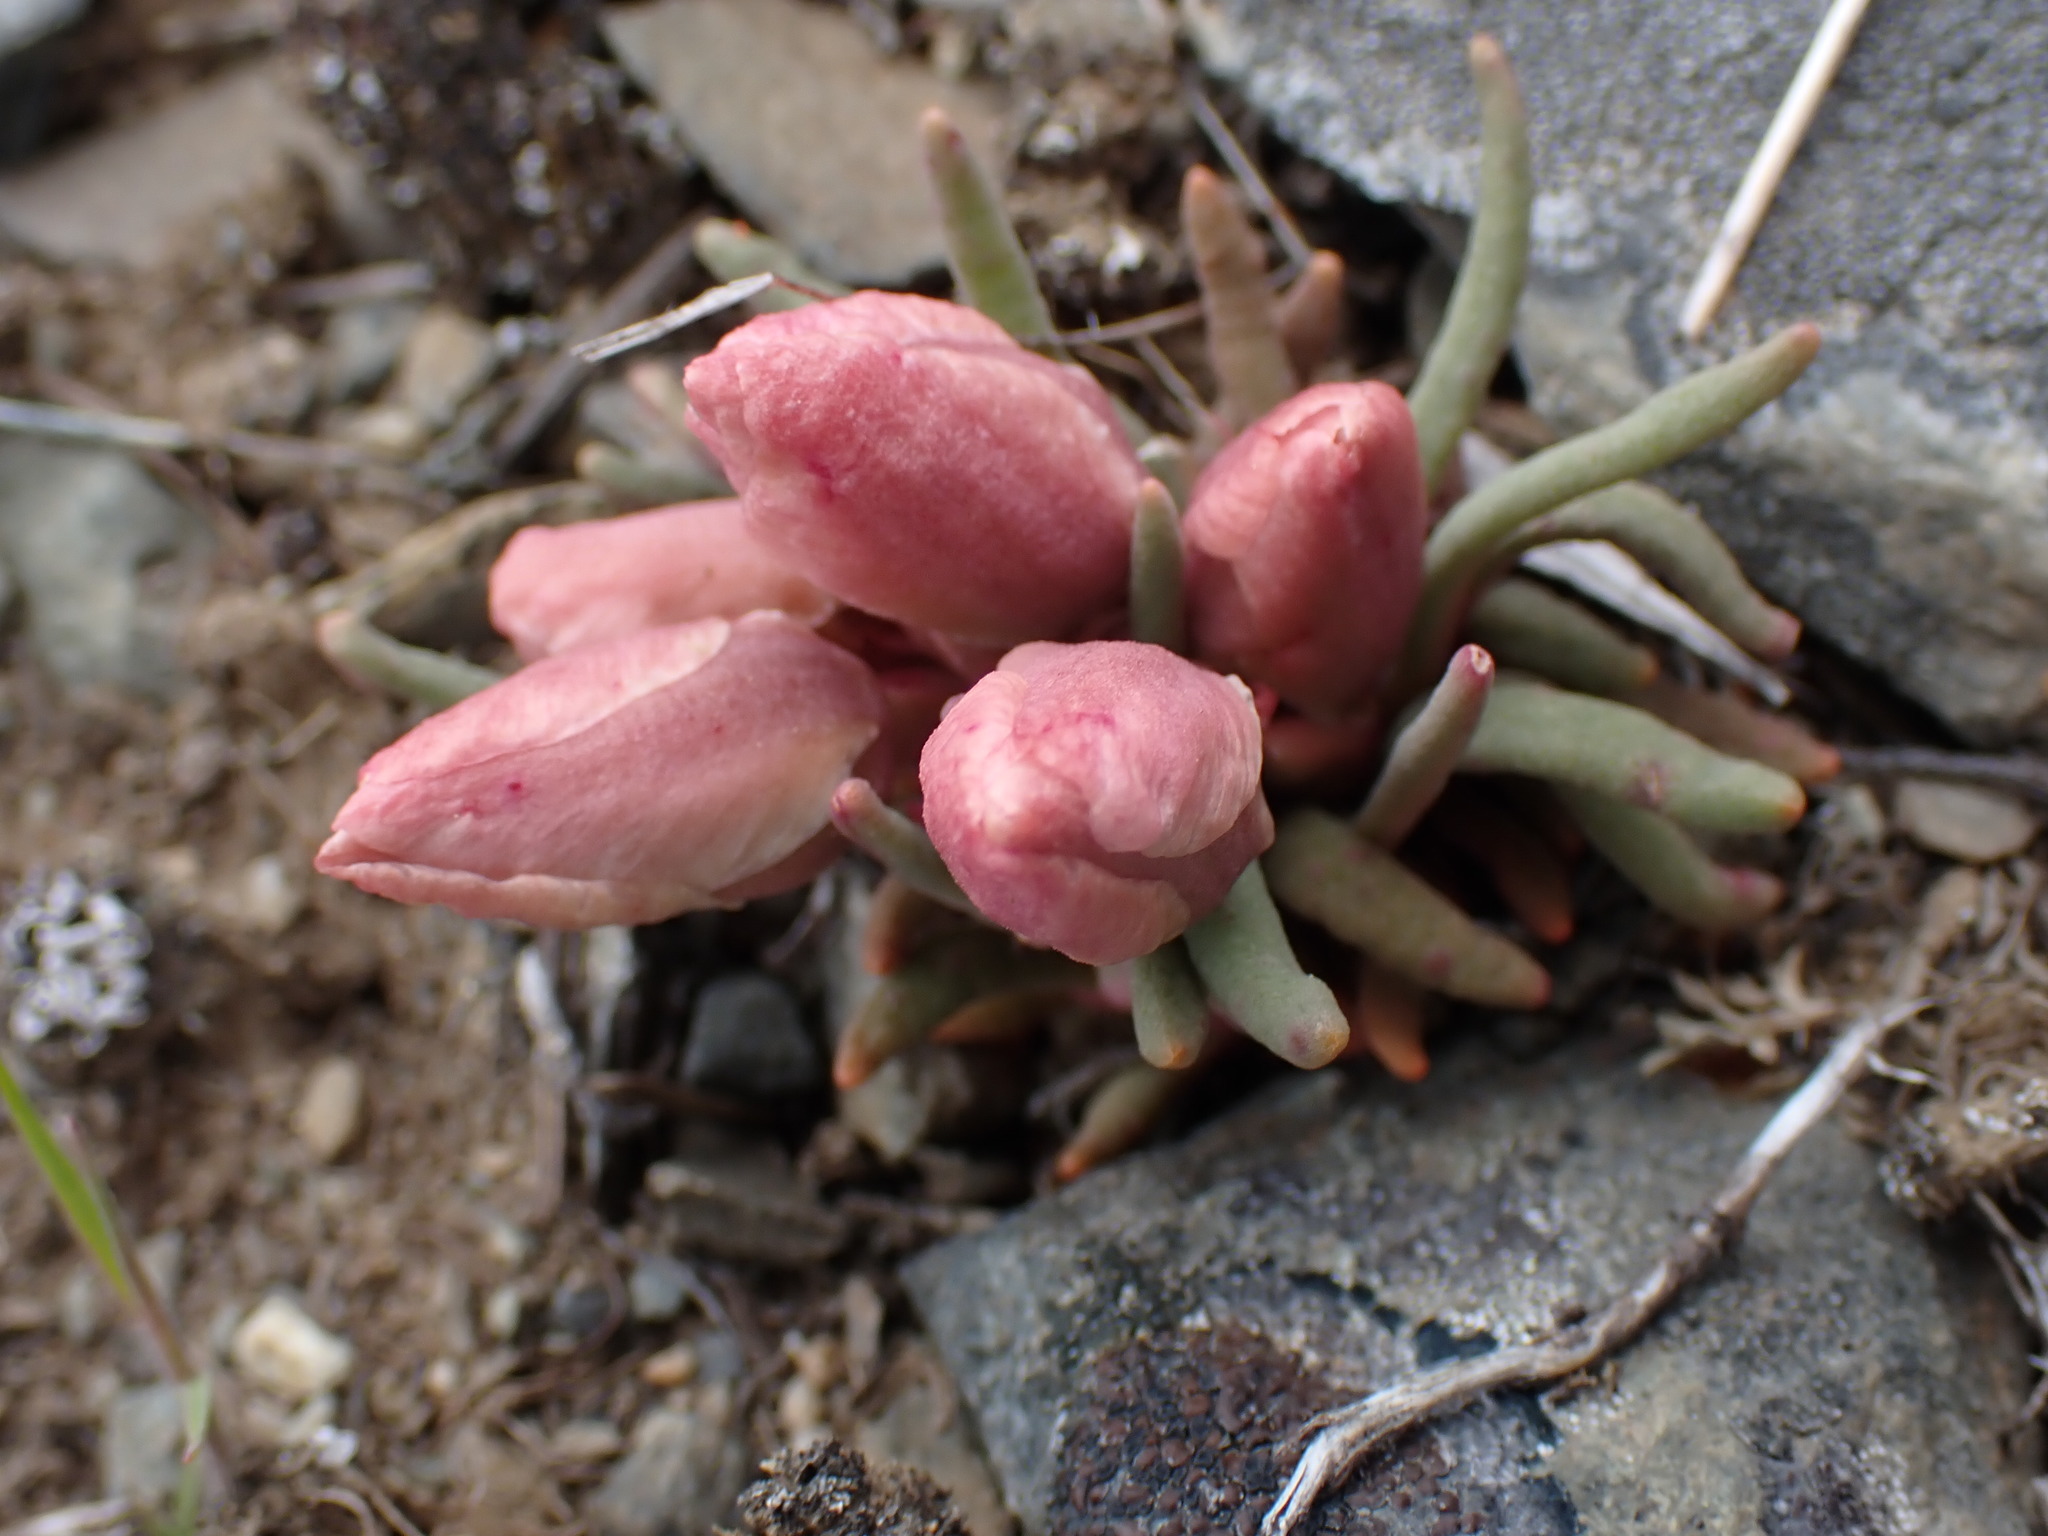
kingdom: Plantae
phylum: Tracheophyta
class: Magnoliopsida
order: Caryophyllales
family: Montiaceae
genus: Lewisia
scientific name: Lewisia rediviva
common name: Bitter-root
